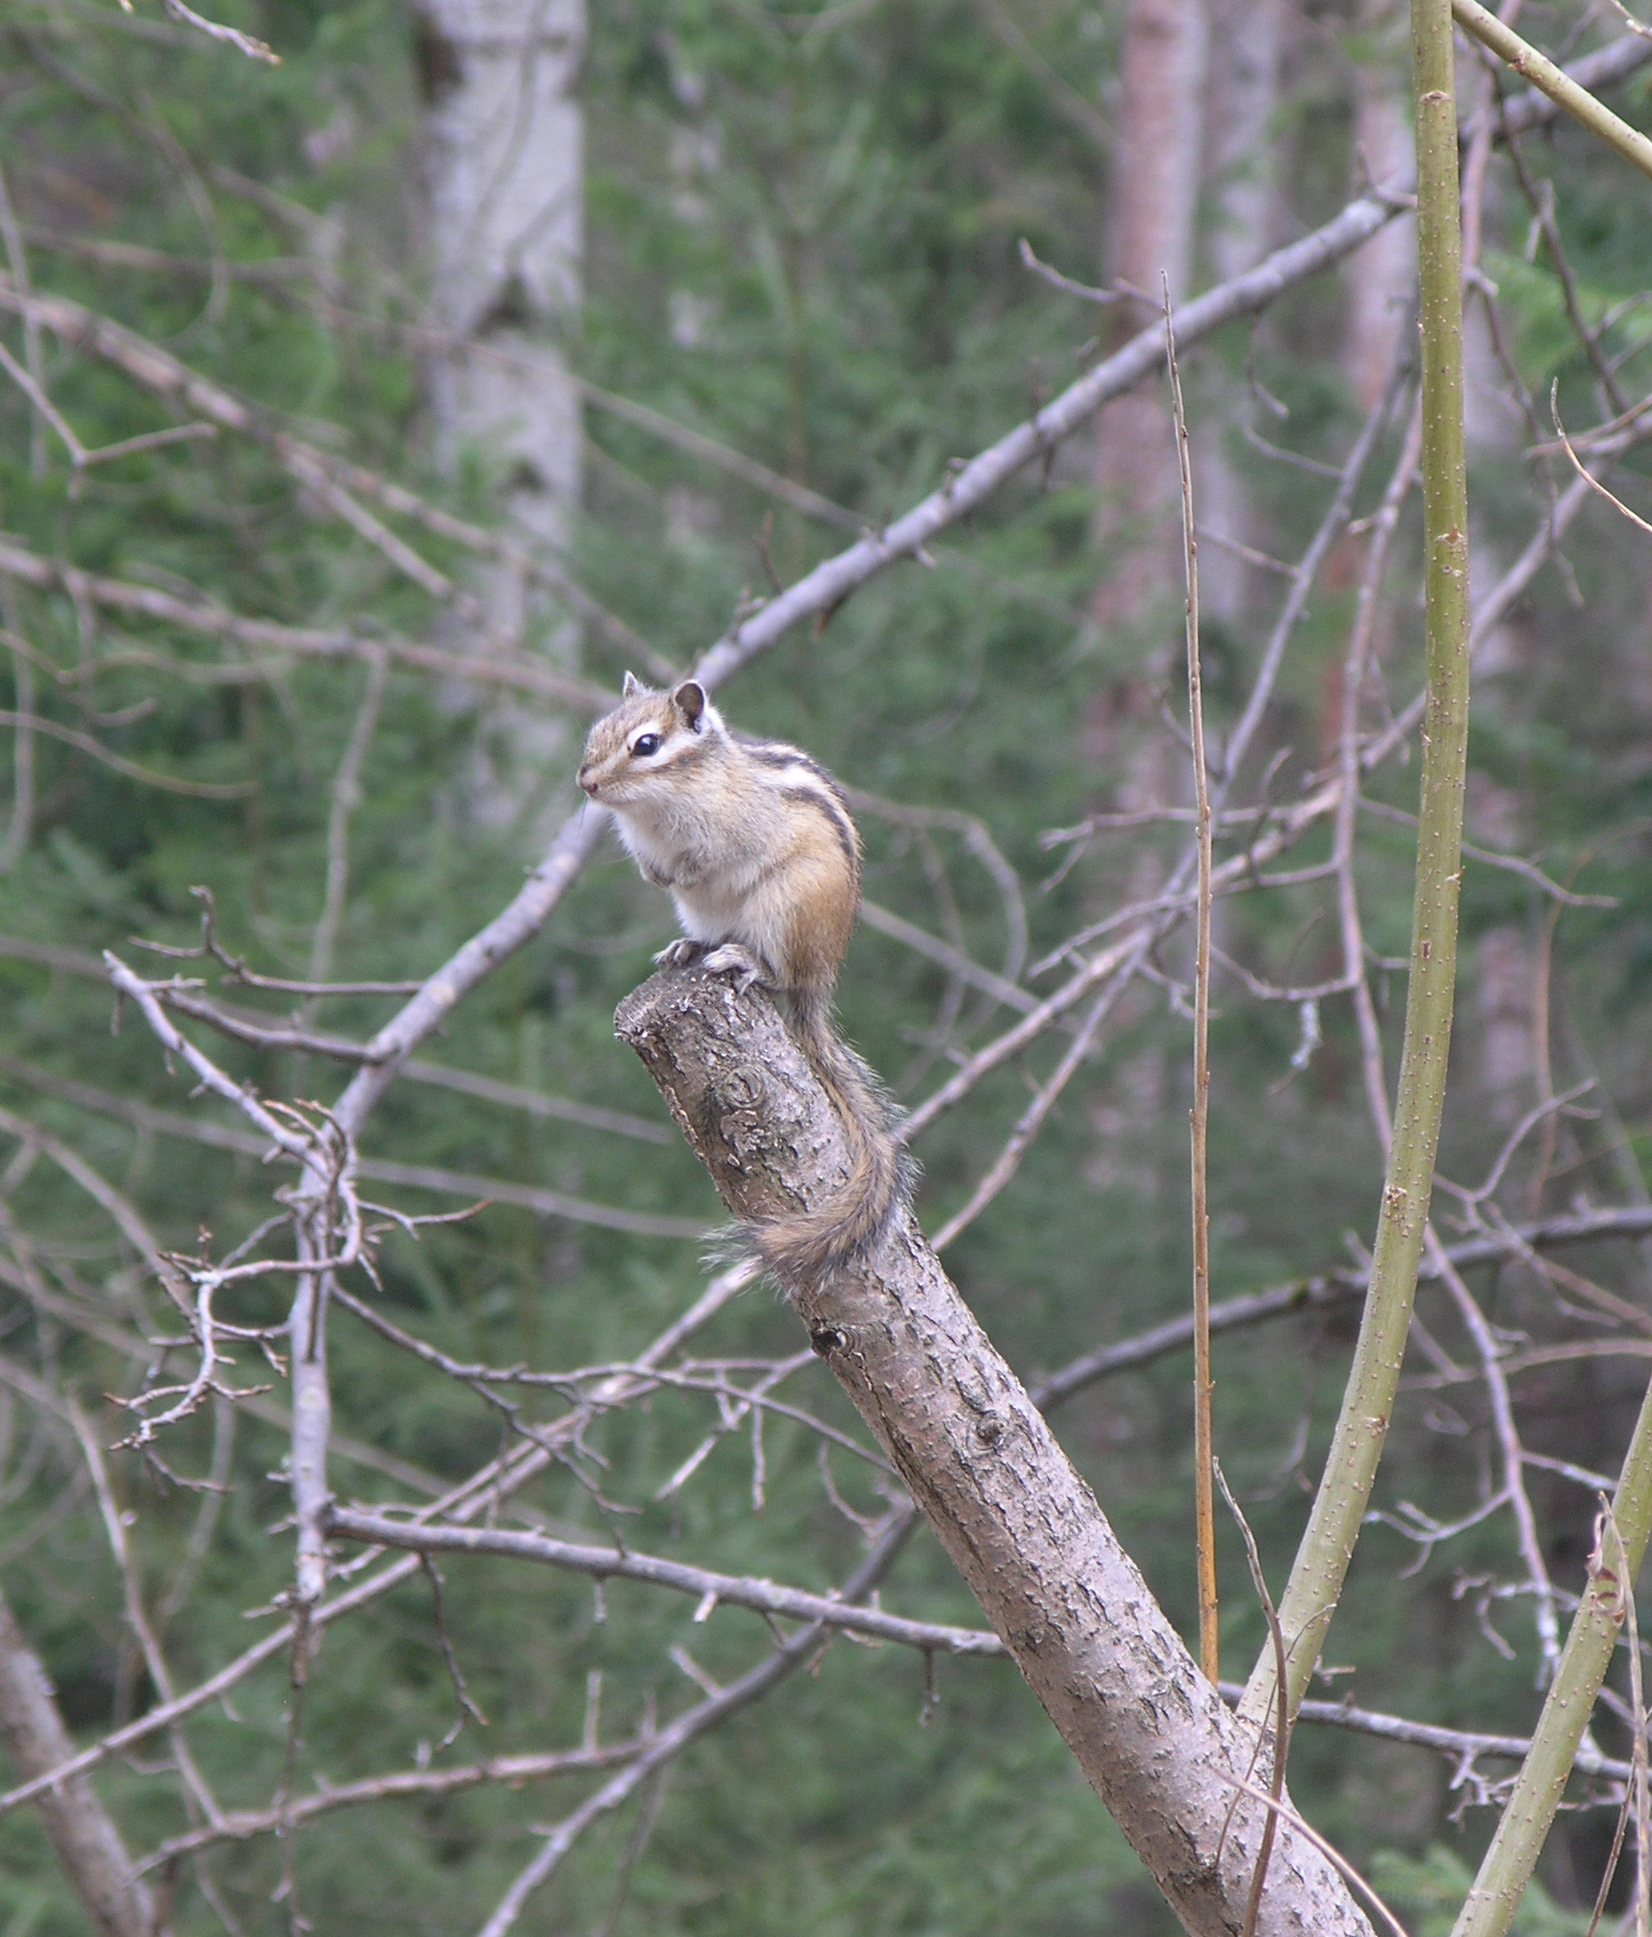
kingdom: Animalia
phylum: Chordata
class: Mammalia
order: Rodentia
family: Sciuridae
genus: Tamias
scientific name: Tamias sibiricus
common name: Siberian chipmunk
